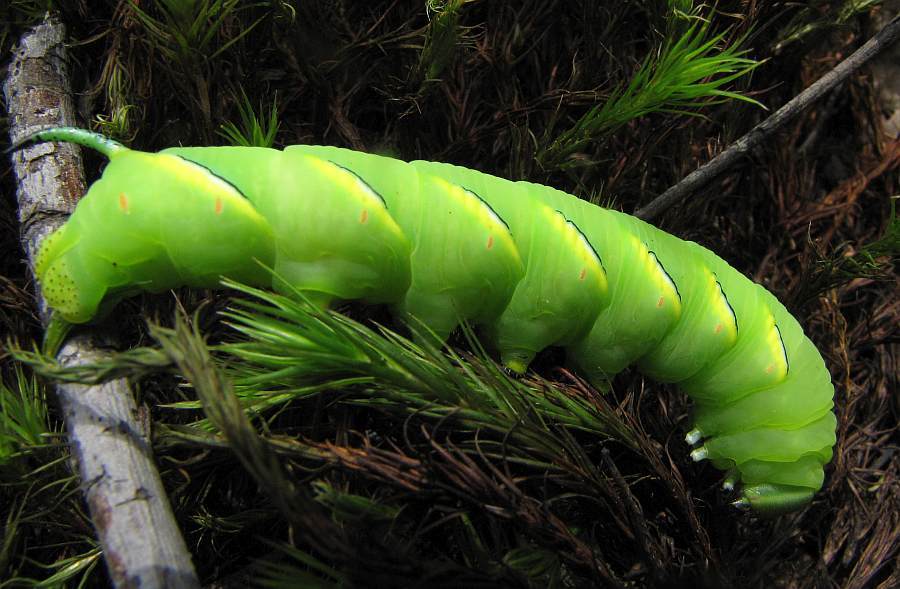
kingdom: Animalia
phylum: Arthropoda
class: Insecta
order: Lepidoptera
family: Sphingidae
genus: Sphinx
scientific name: Sphinx kalmiae
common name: Laurel sphinx
